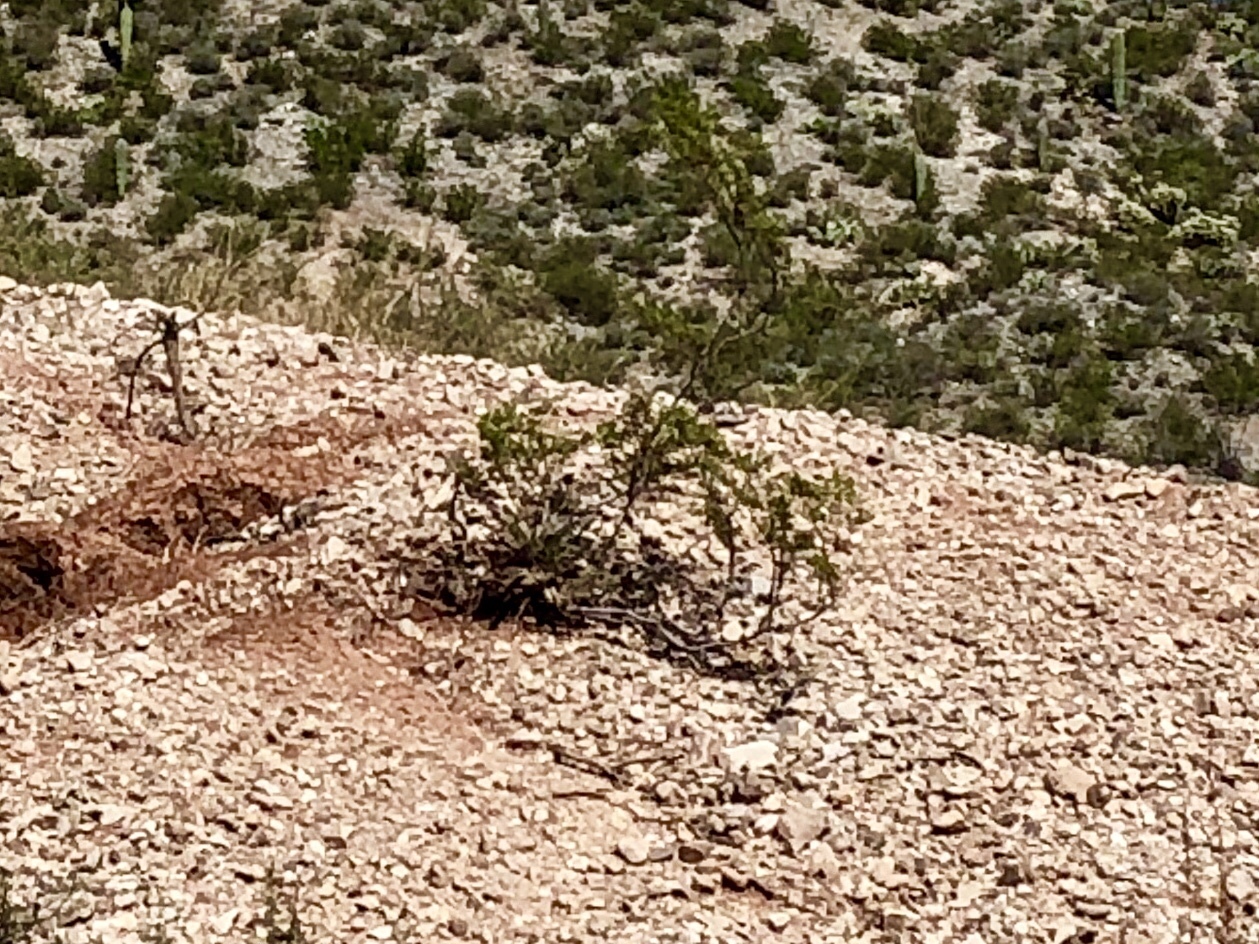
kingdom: Plantae
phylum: Tracheophyta
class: Magnoliopsida
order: Zygophyllales
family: Zygophyllaceae
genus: Larrea
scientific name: Larrea tridentata
